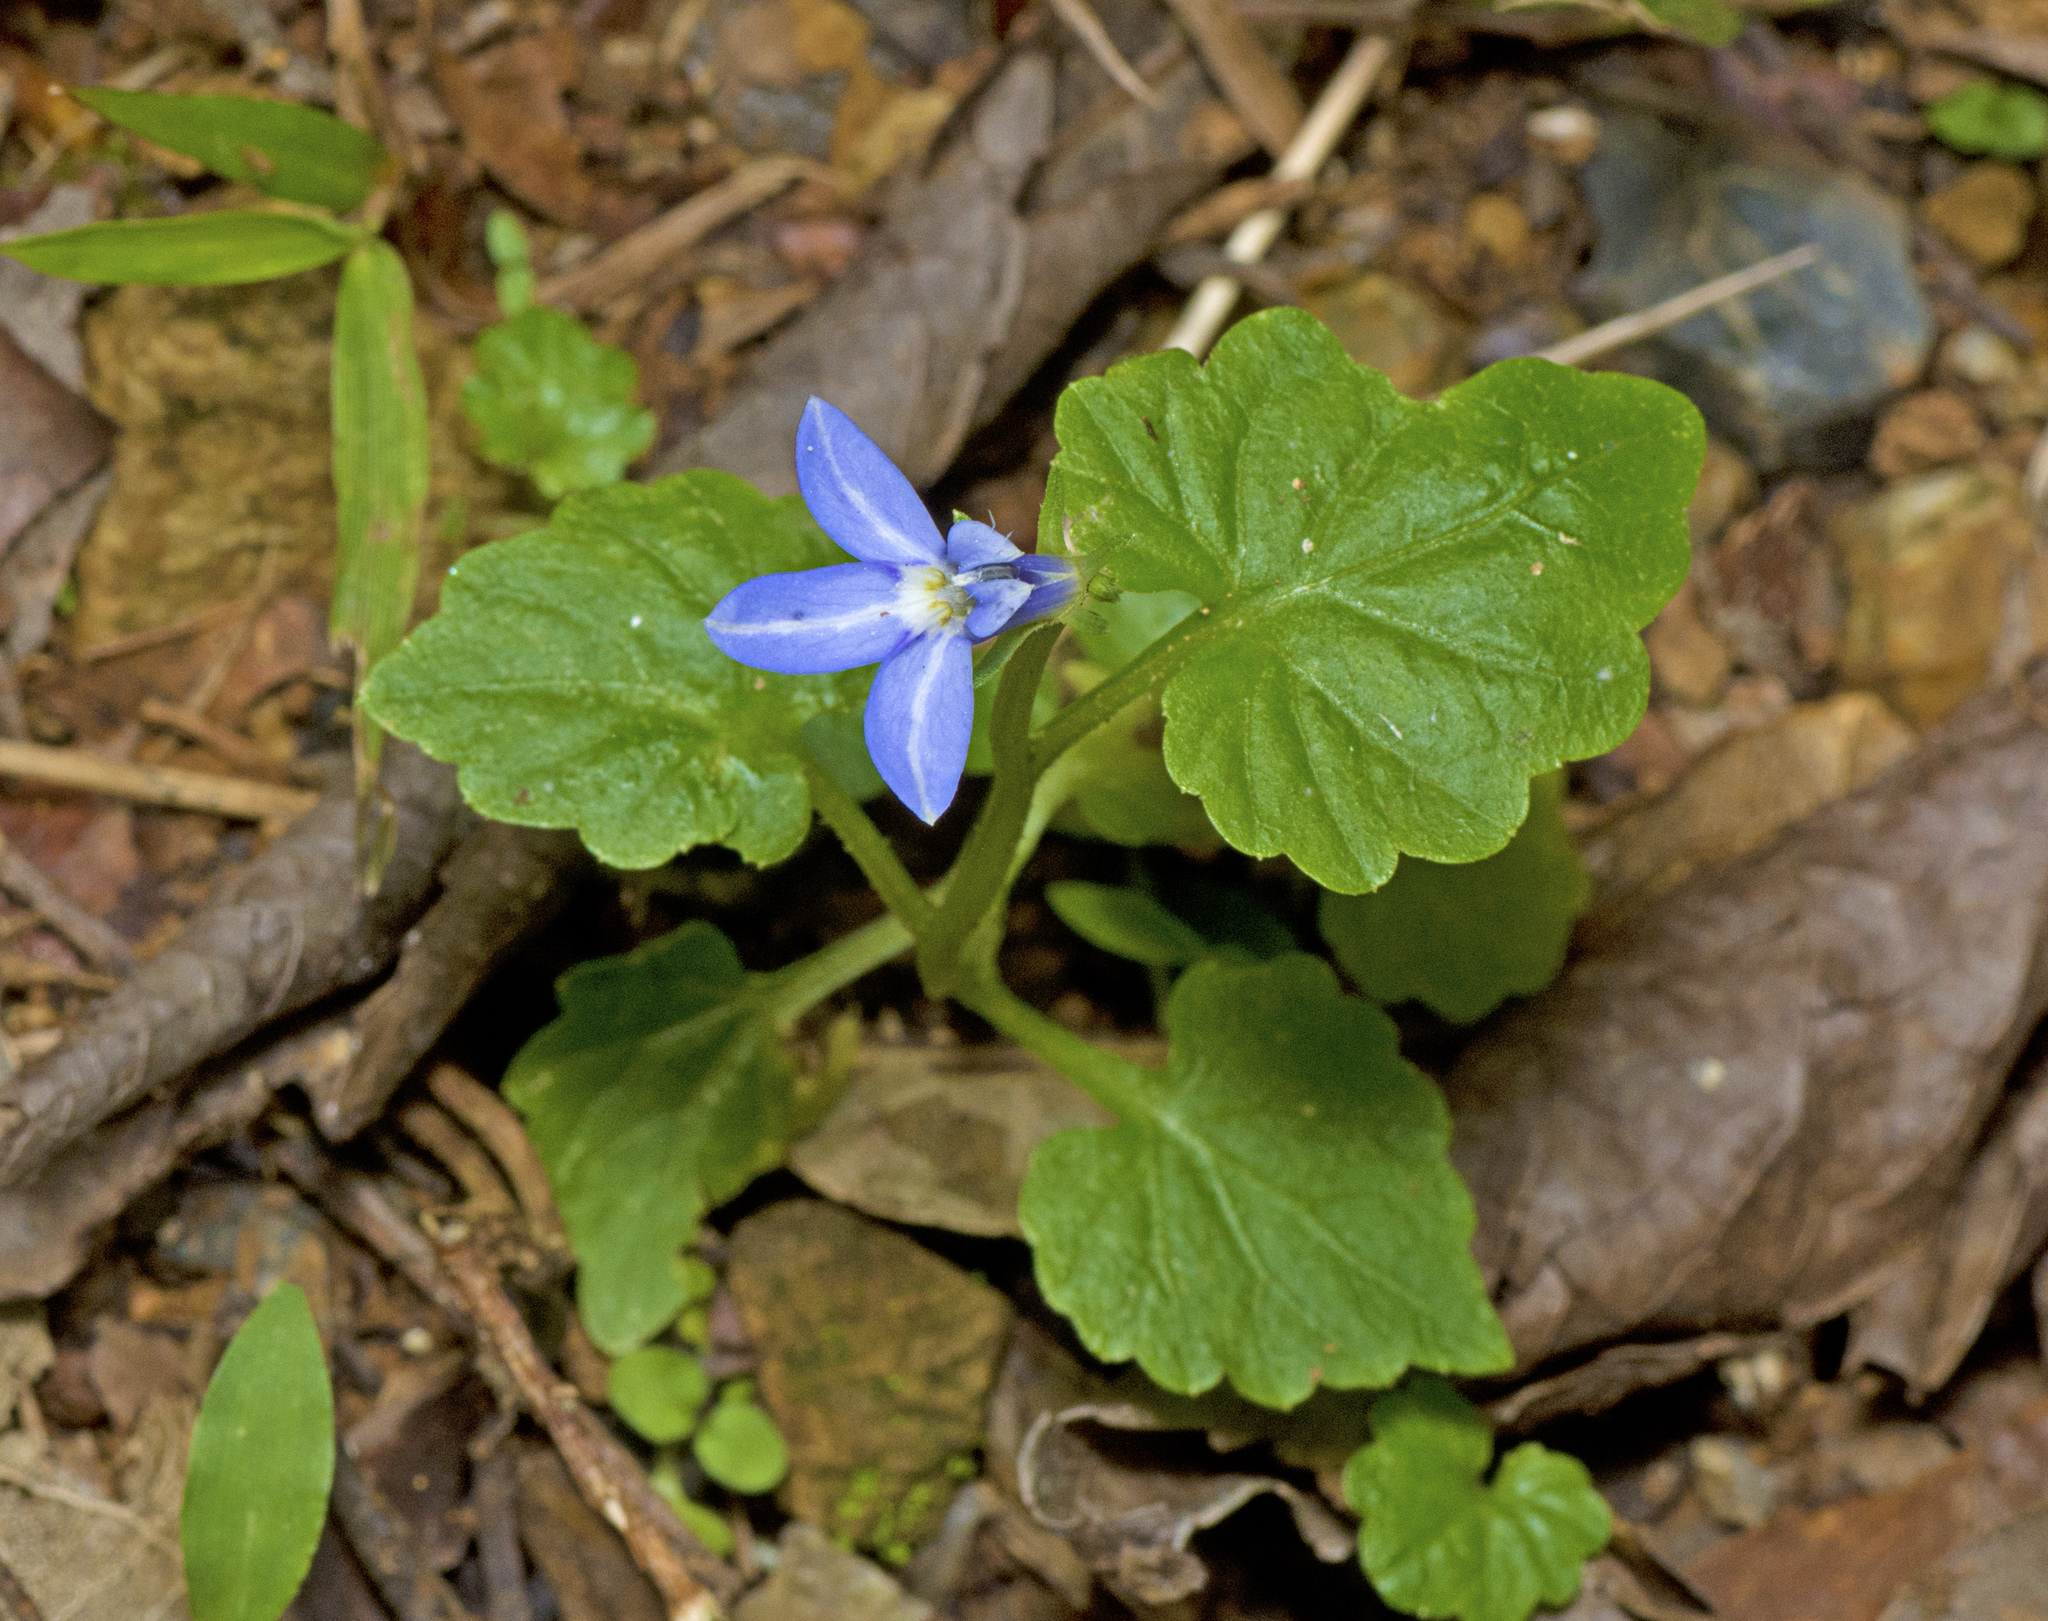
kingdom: Plantae
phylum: Tracheophyta
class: Magnoliopsida
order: Asterales
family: Campanulaceae
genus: Lobelia
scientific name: Lobelia trigonocaulis
